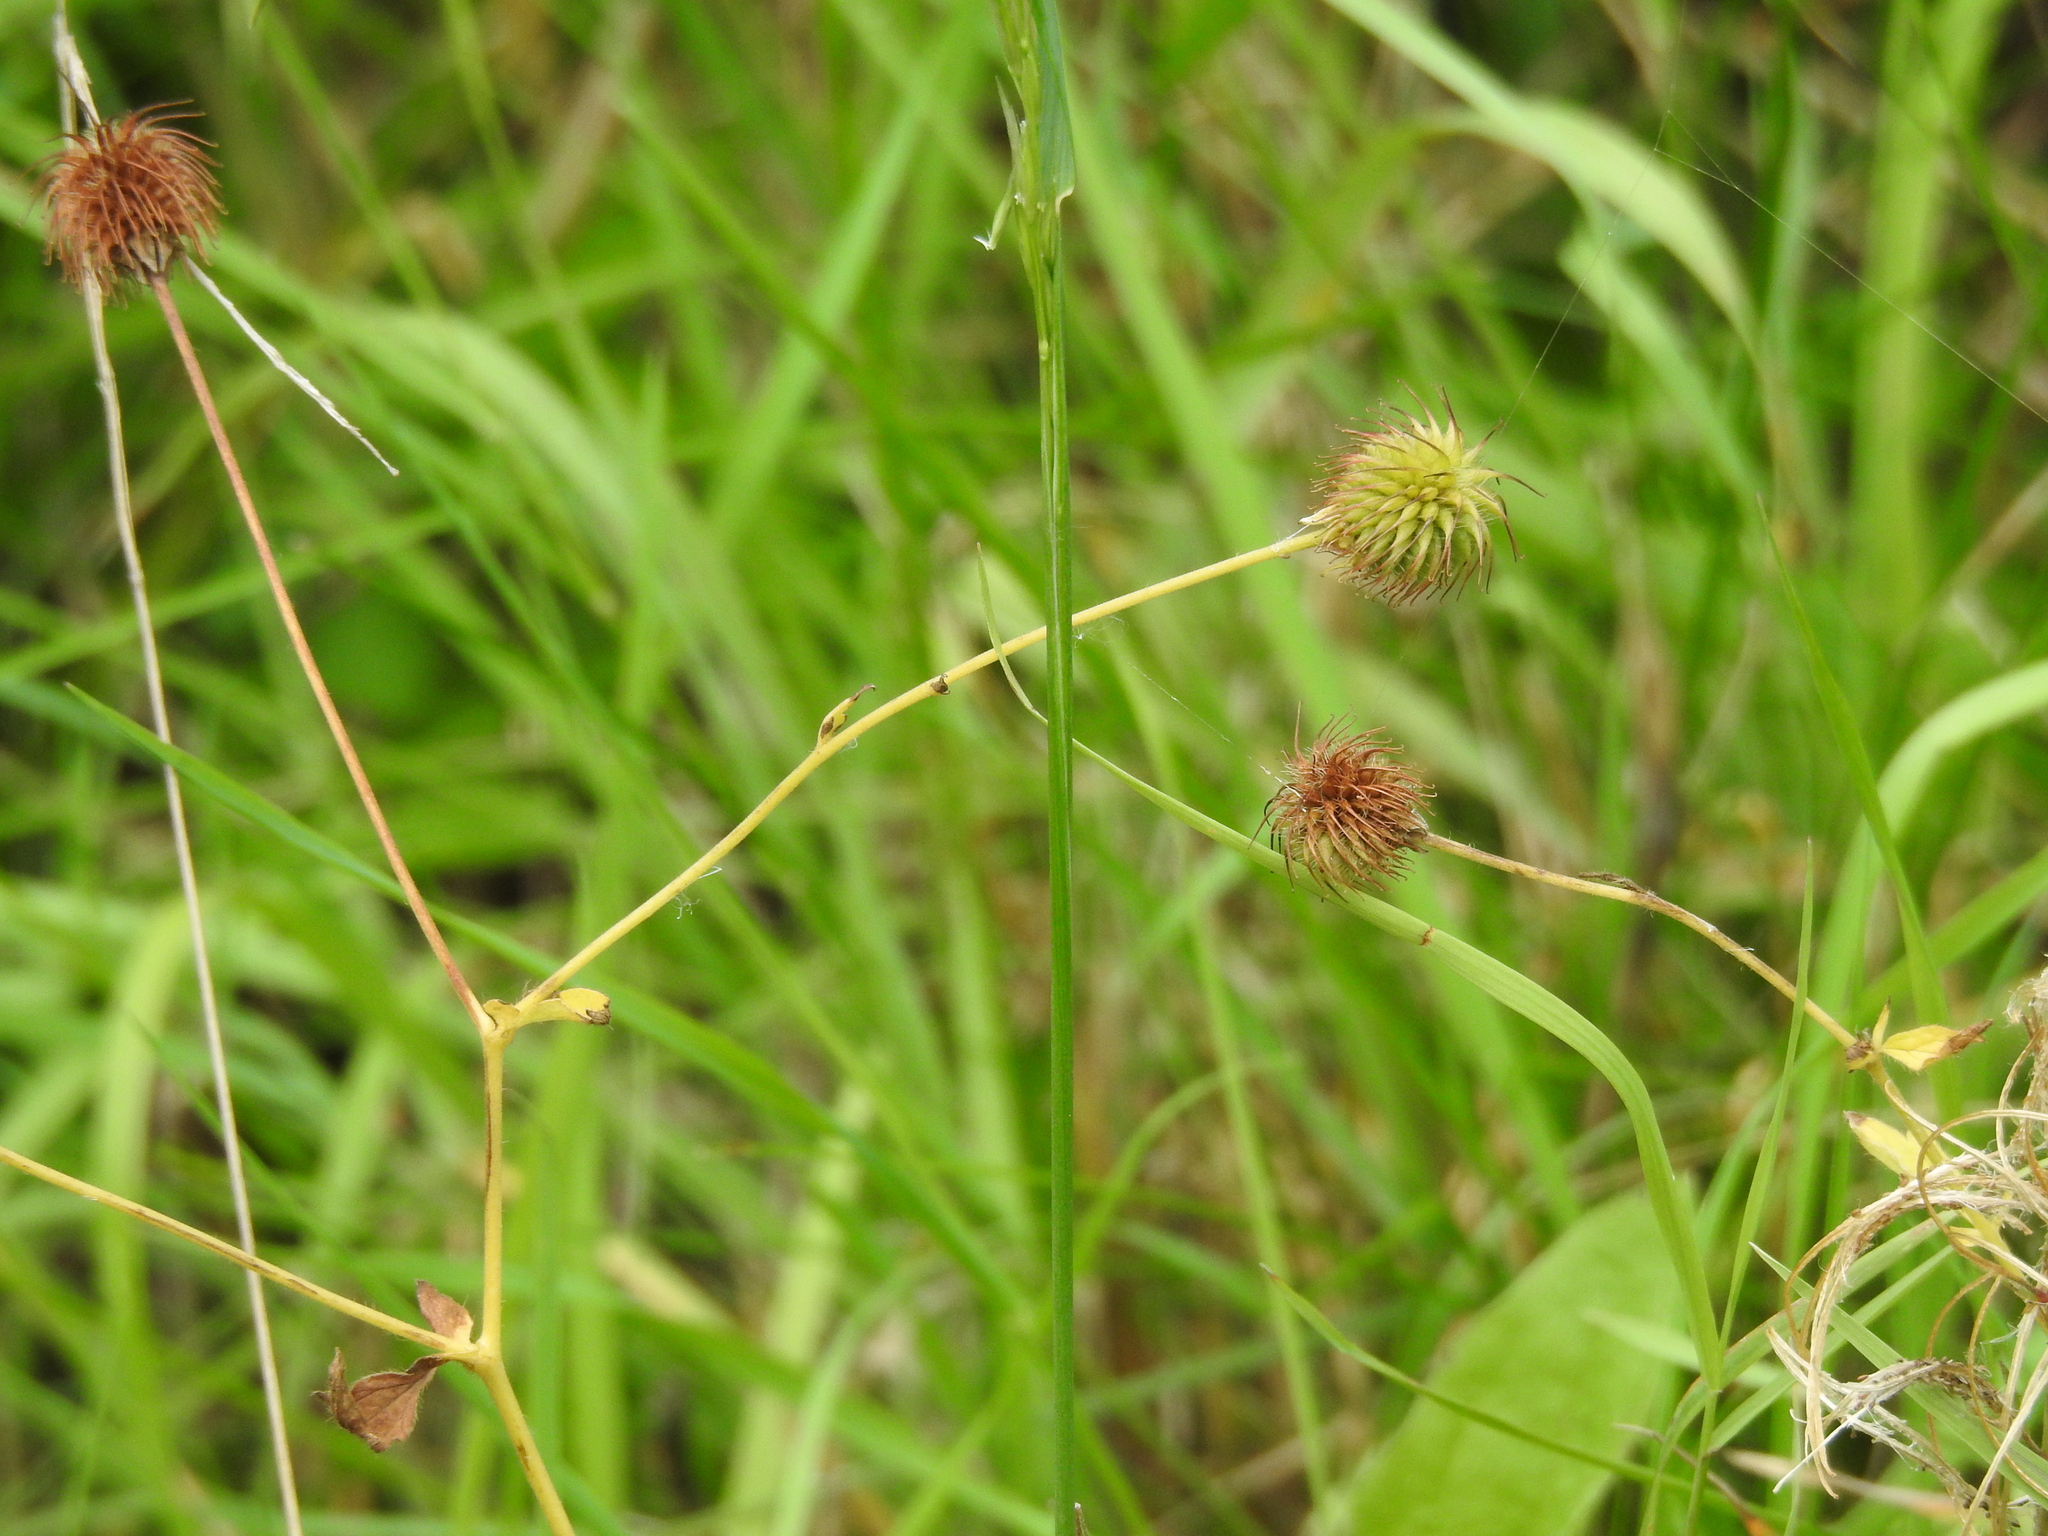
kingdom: Plantae
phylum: Tracheophyta
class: Magnoliopsida
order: Rosales
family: Rosaceae
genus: Geum
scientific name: Geum urbanum
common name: Wood avens
